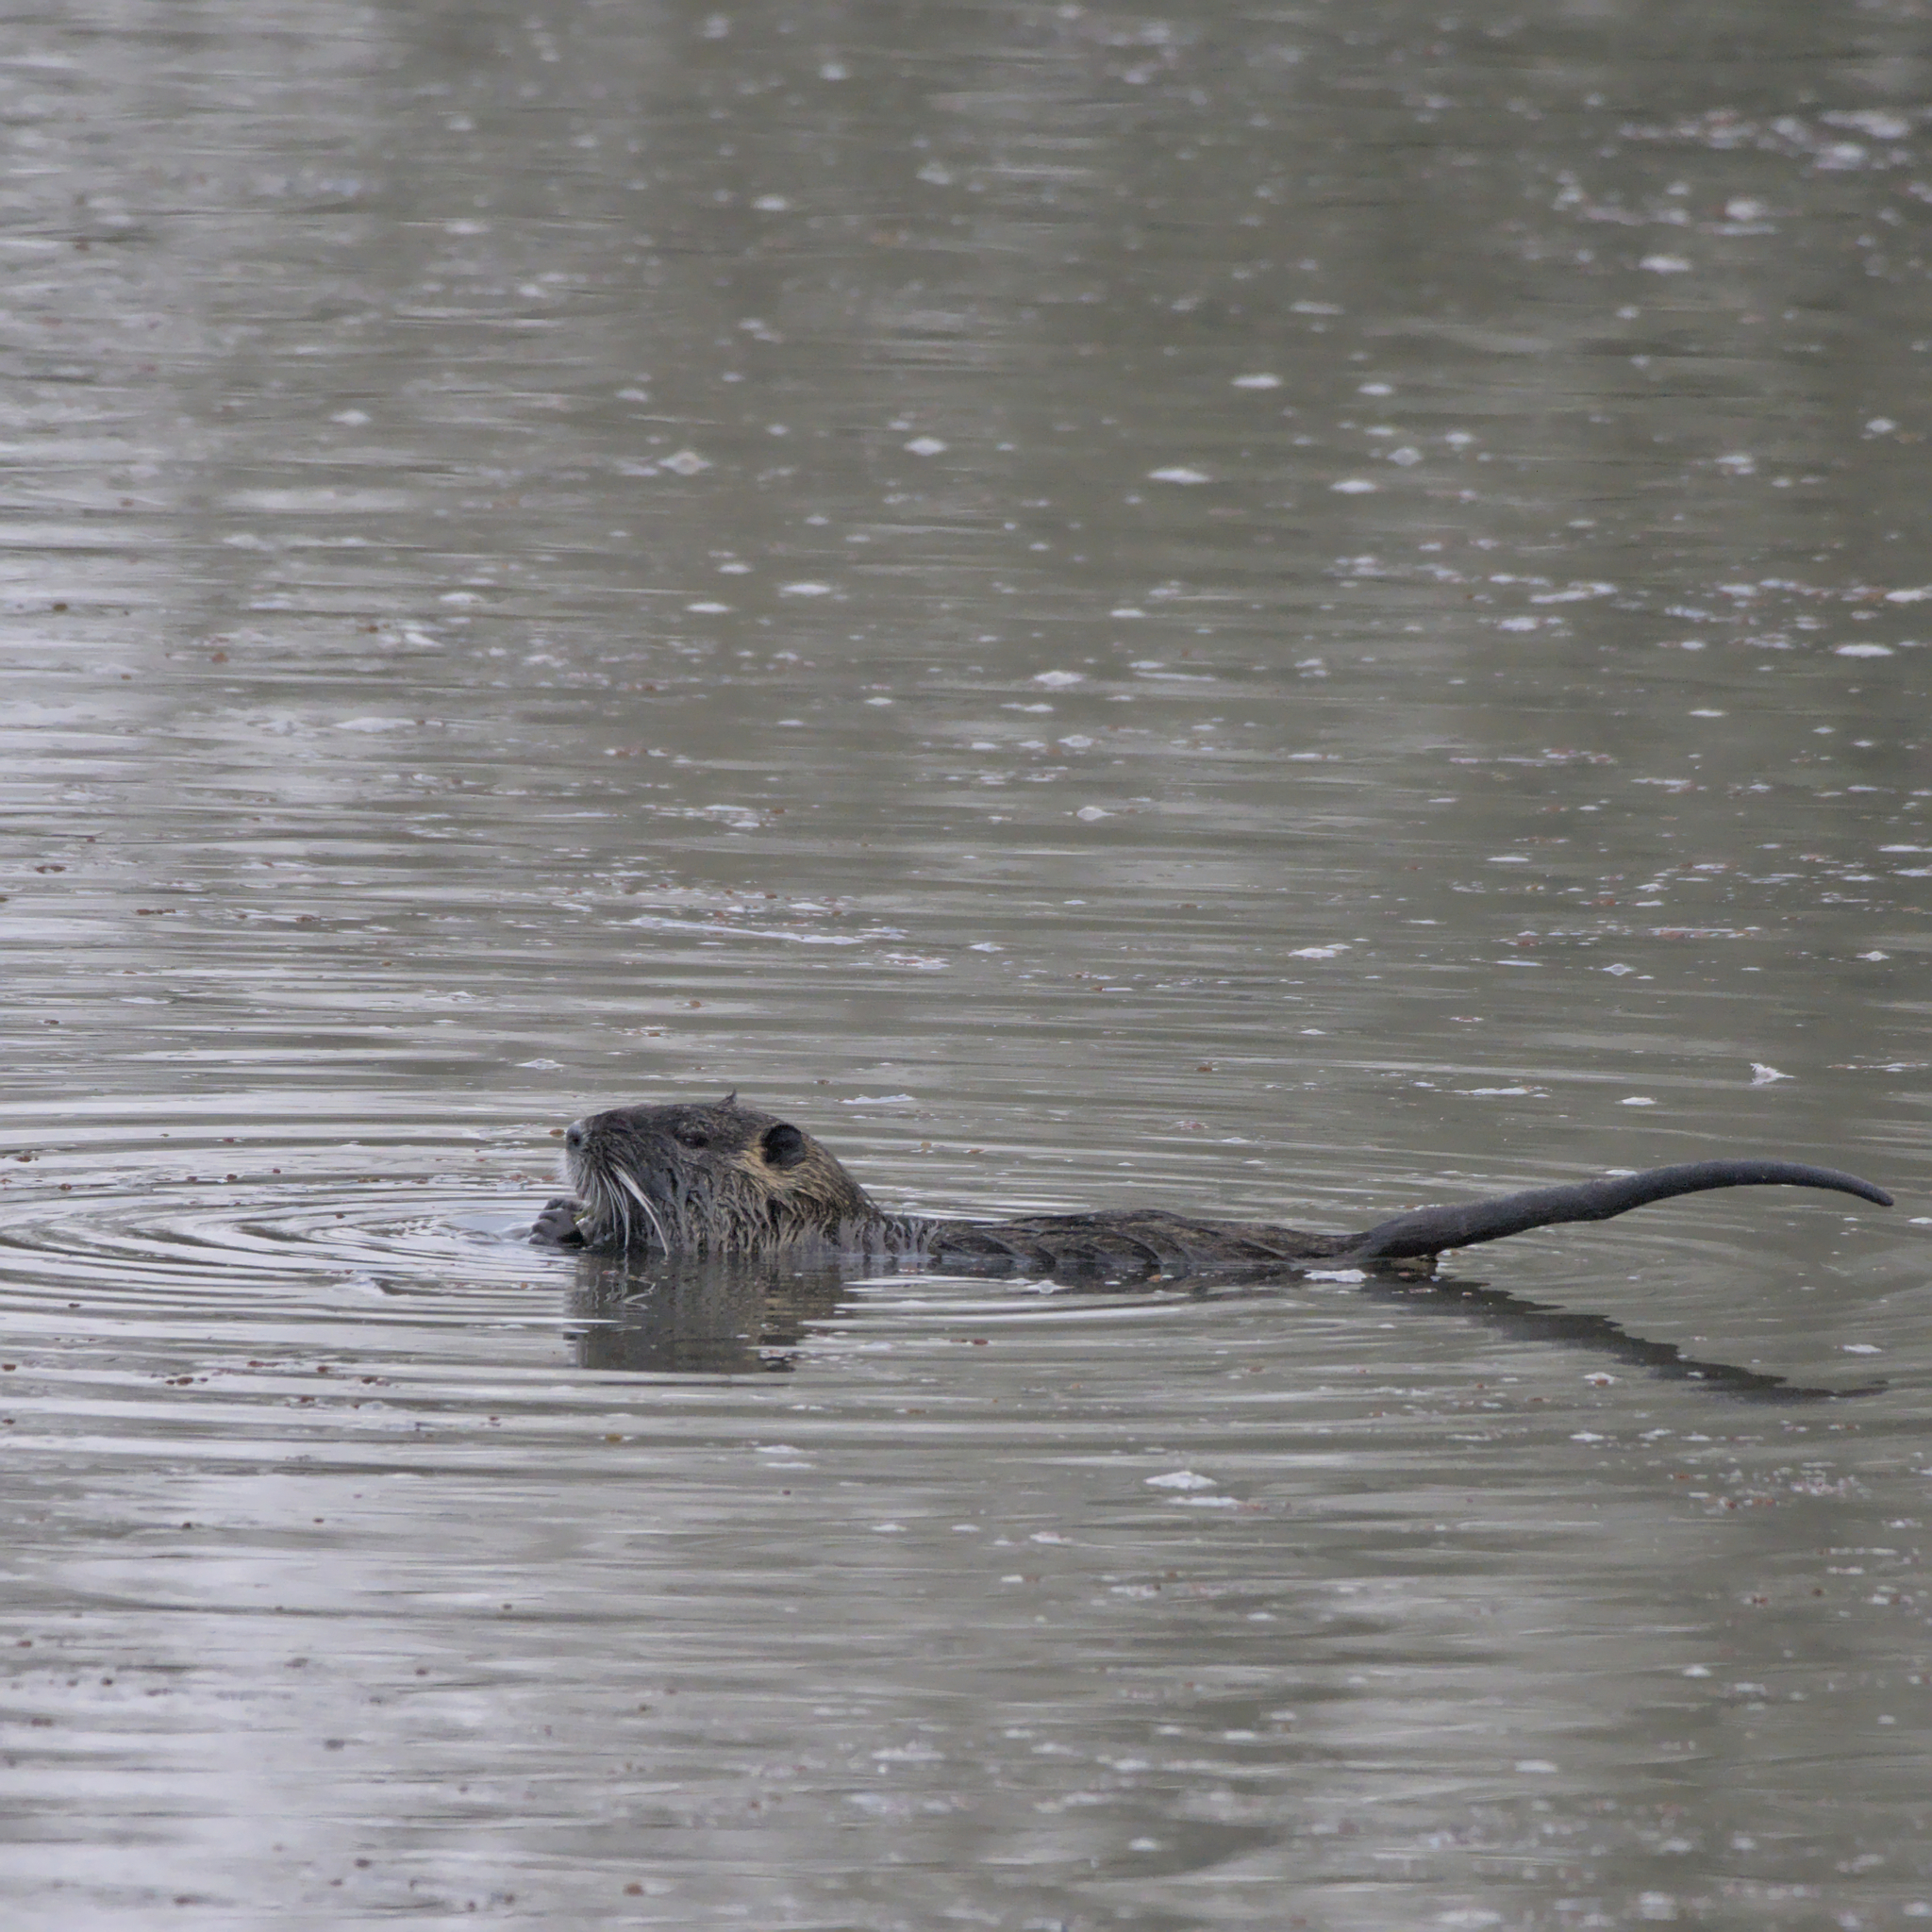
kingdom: Animalia
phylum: Chordata
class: Mammalia
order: Rodentia
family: Myocastoridae
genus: Myocastor
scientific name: Myocastor coypus
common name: Coypu
